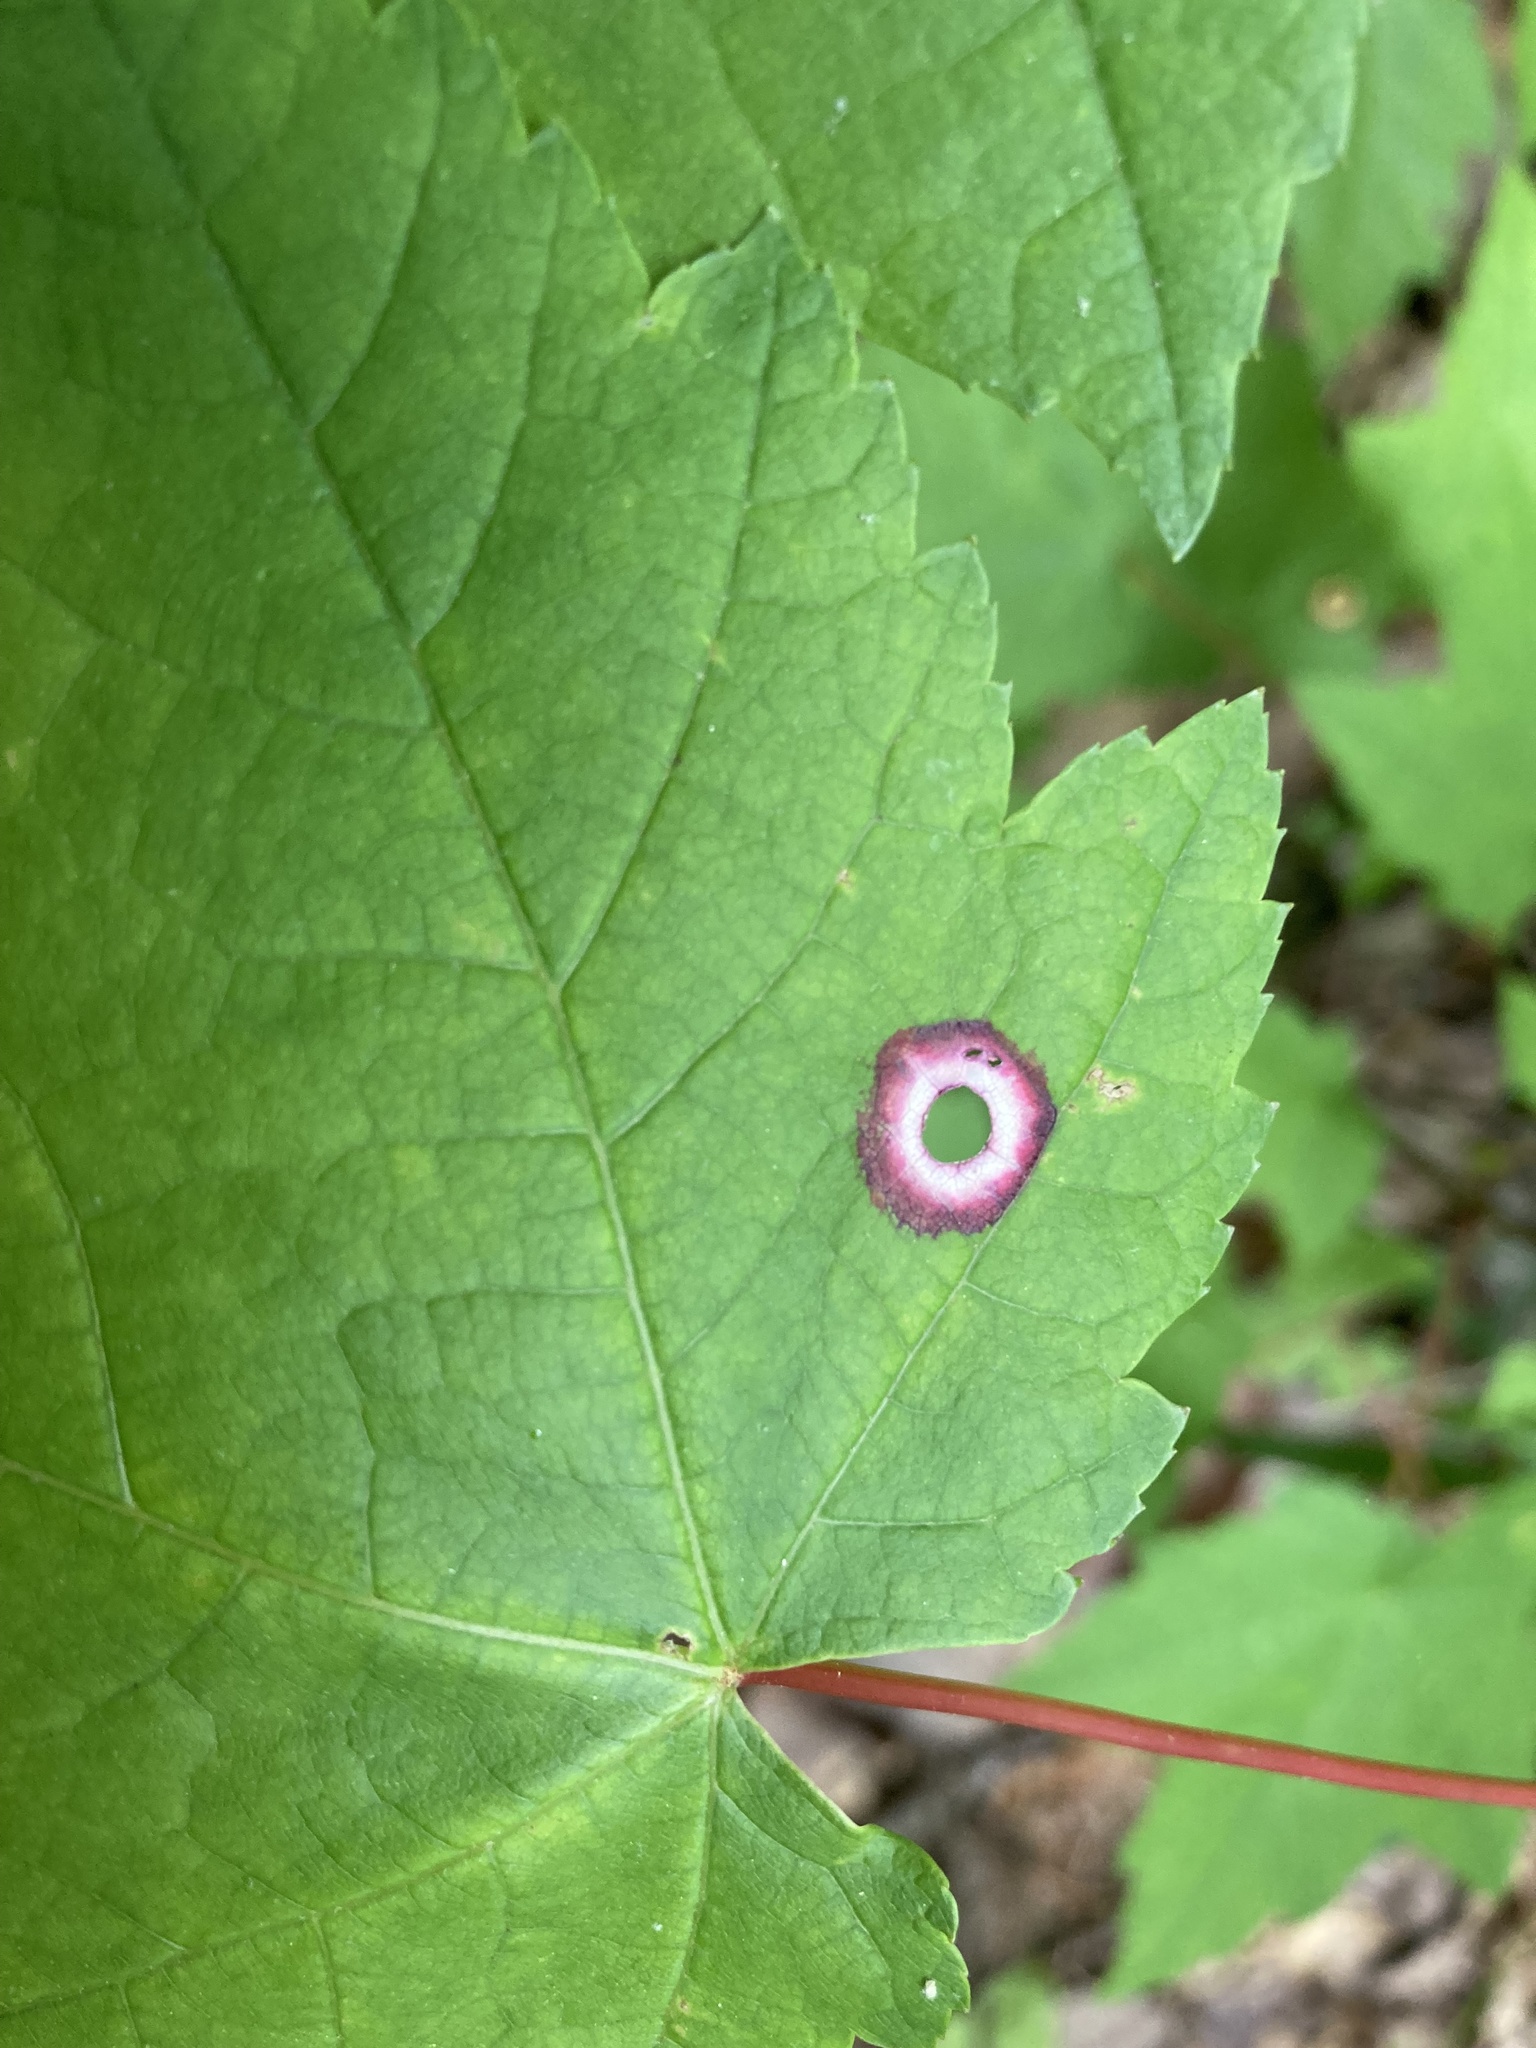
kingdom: Animalia
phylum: Arthropoda
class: Insecta
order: Diptera
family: Cecidomyiidae
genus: Acericecis
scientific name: Acericecis ocellaris
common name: Ocellate gall midge
